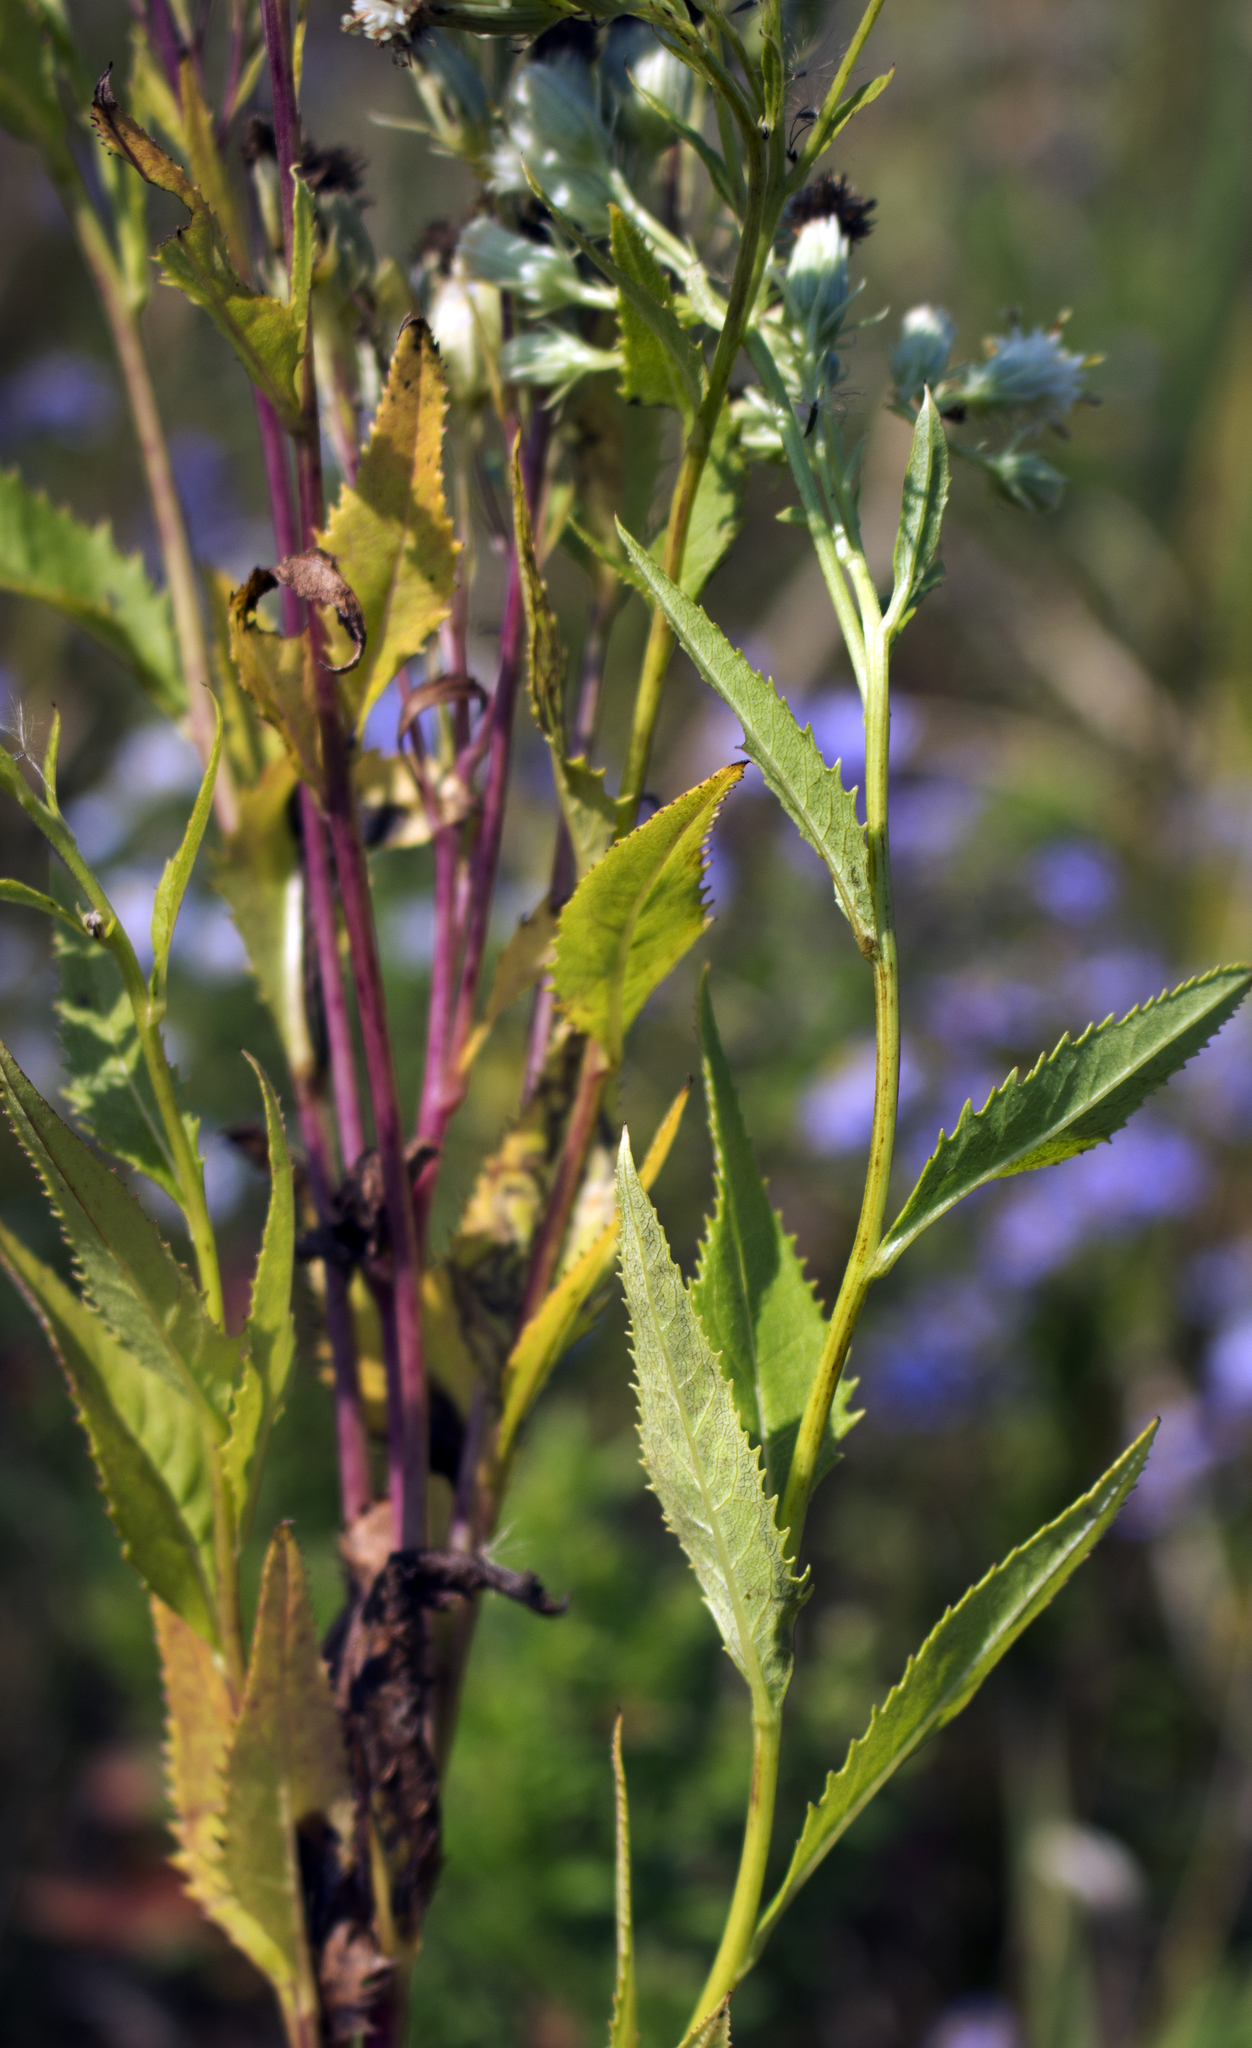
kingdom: Plantae
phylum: Tracheophyta
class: Magnoliopsida
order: Asterales
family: Asteraceae
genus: Hasteola
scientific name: Hasteola suaveolens
